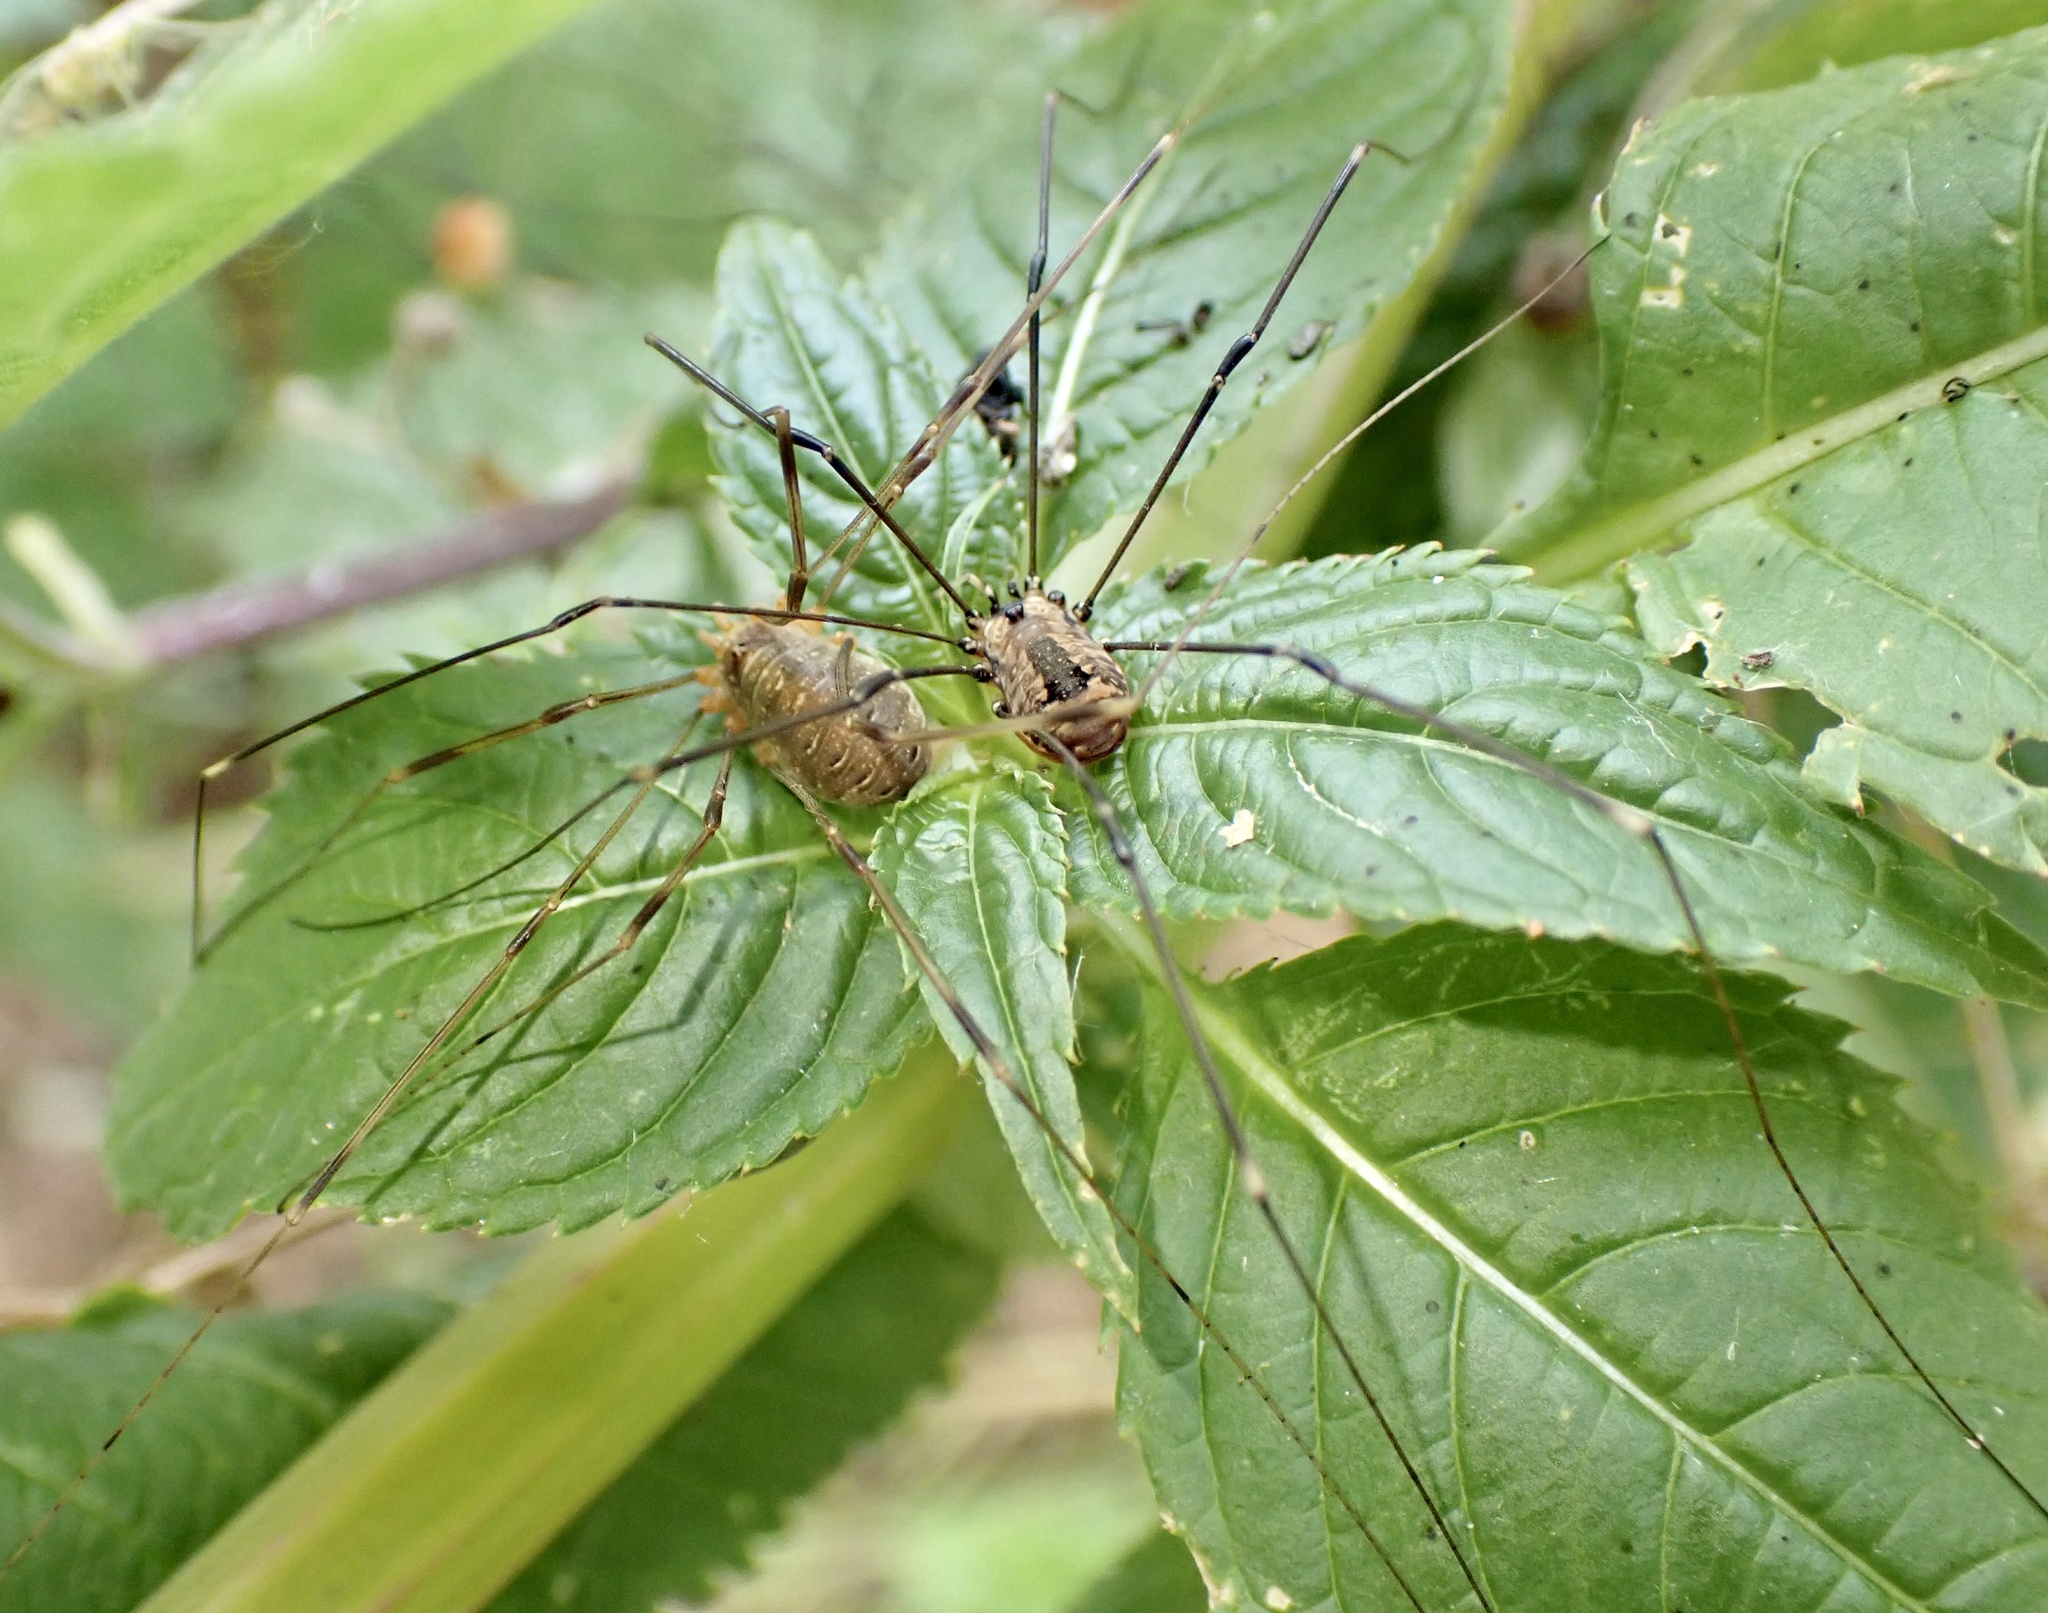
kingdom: Animalia
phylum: Arthropoda
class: Arachnida
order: Opiliones
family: Sclerosomatidae
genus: Leiobunum
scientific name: Leiobunum rotundum
